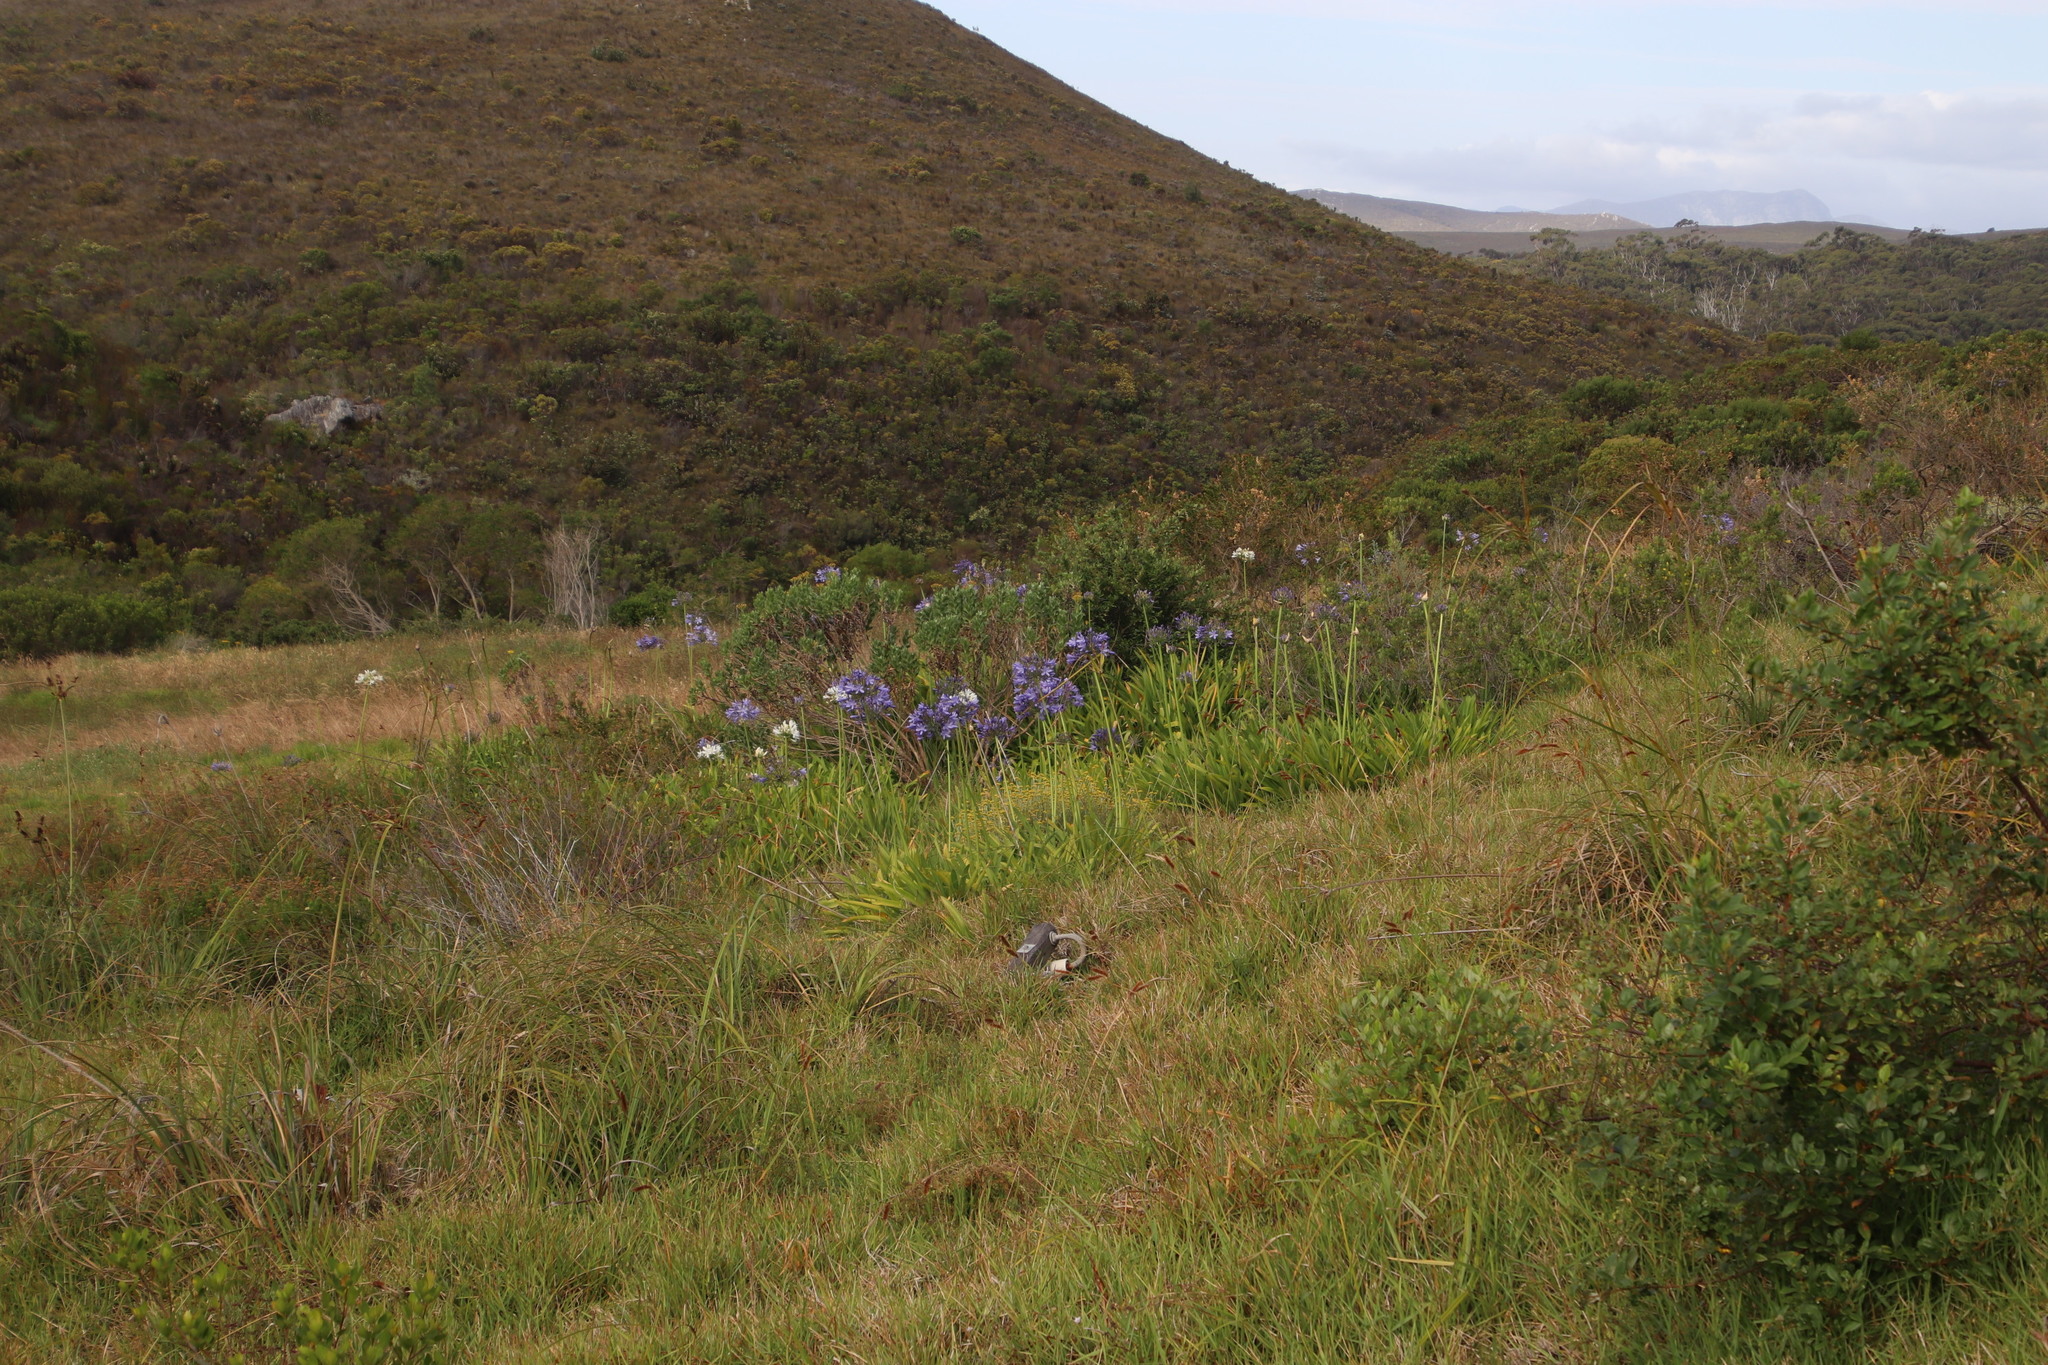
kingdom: Plantae
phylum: Tracheophyta
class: Liliopsida
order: Asparagales
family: Amaryllidaceae
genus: Agapanthus
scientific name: Agapanthus praecox
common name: African-lily
